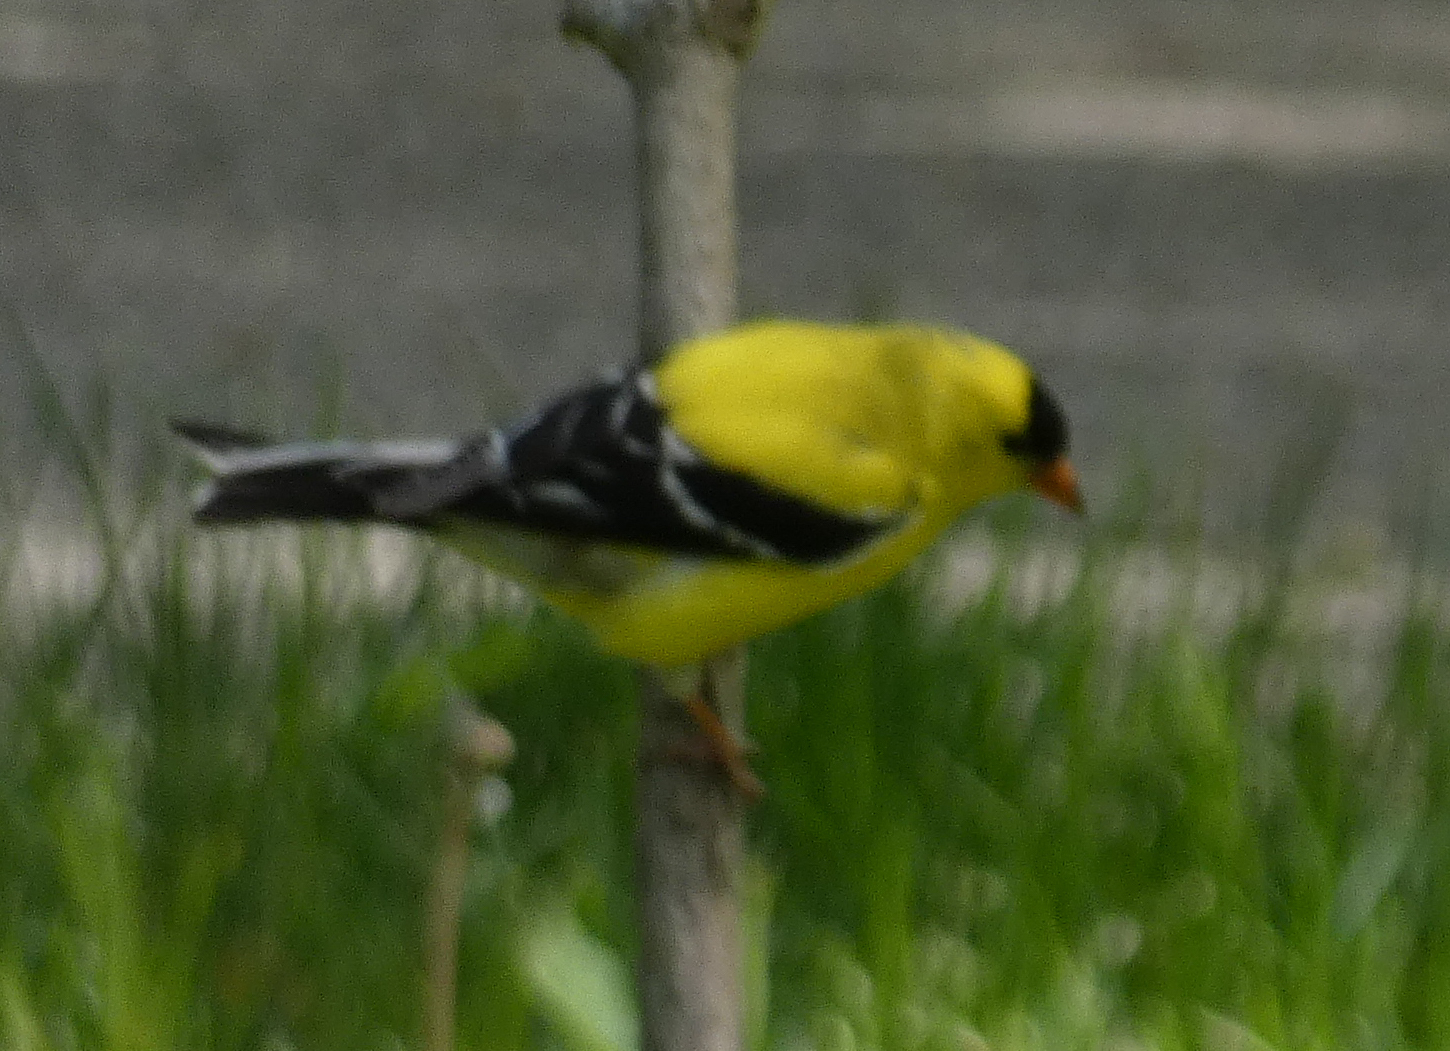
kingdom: Animalia
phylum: Chordata
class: Aves
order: Passeriformes
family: Fringillidae
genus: Spinus
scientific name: Spinus tristis
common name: American goldfinch
